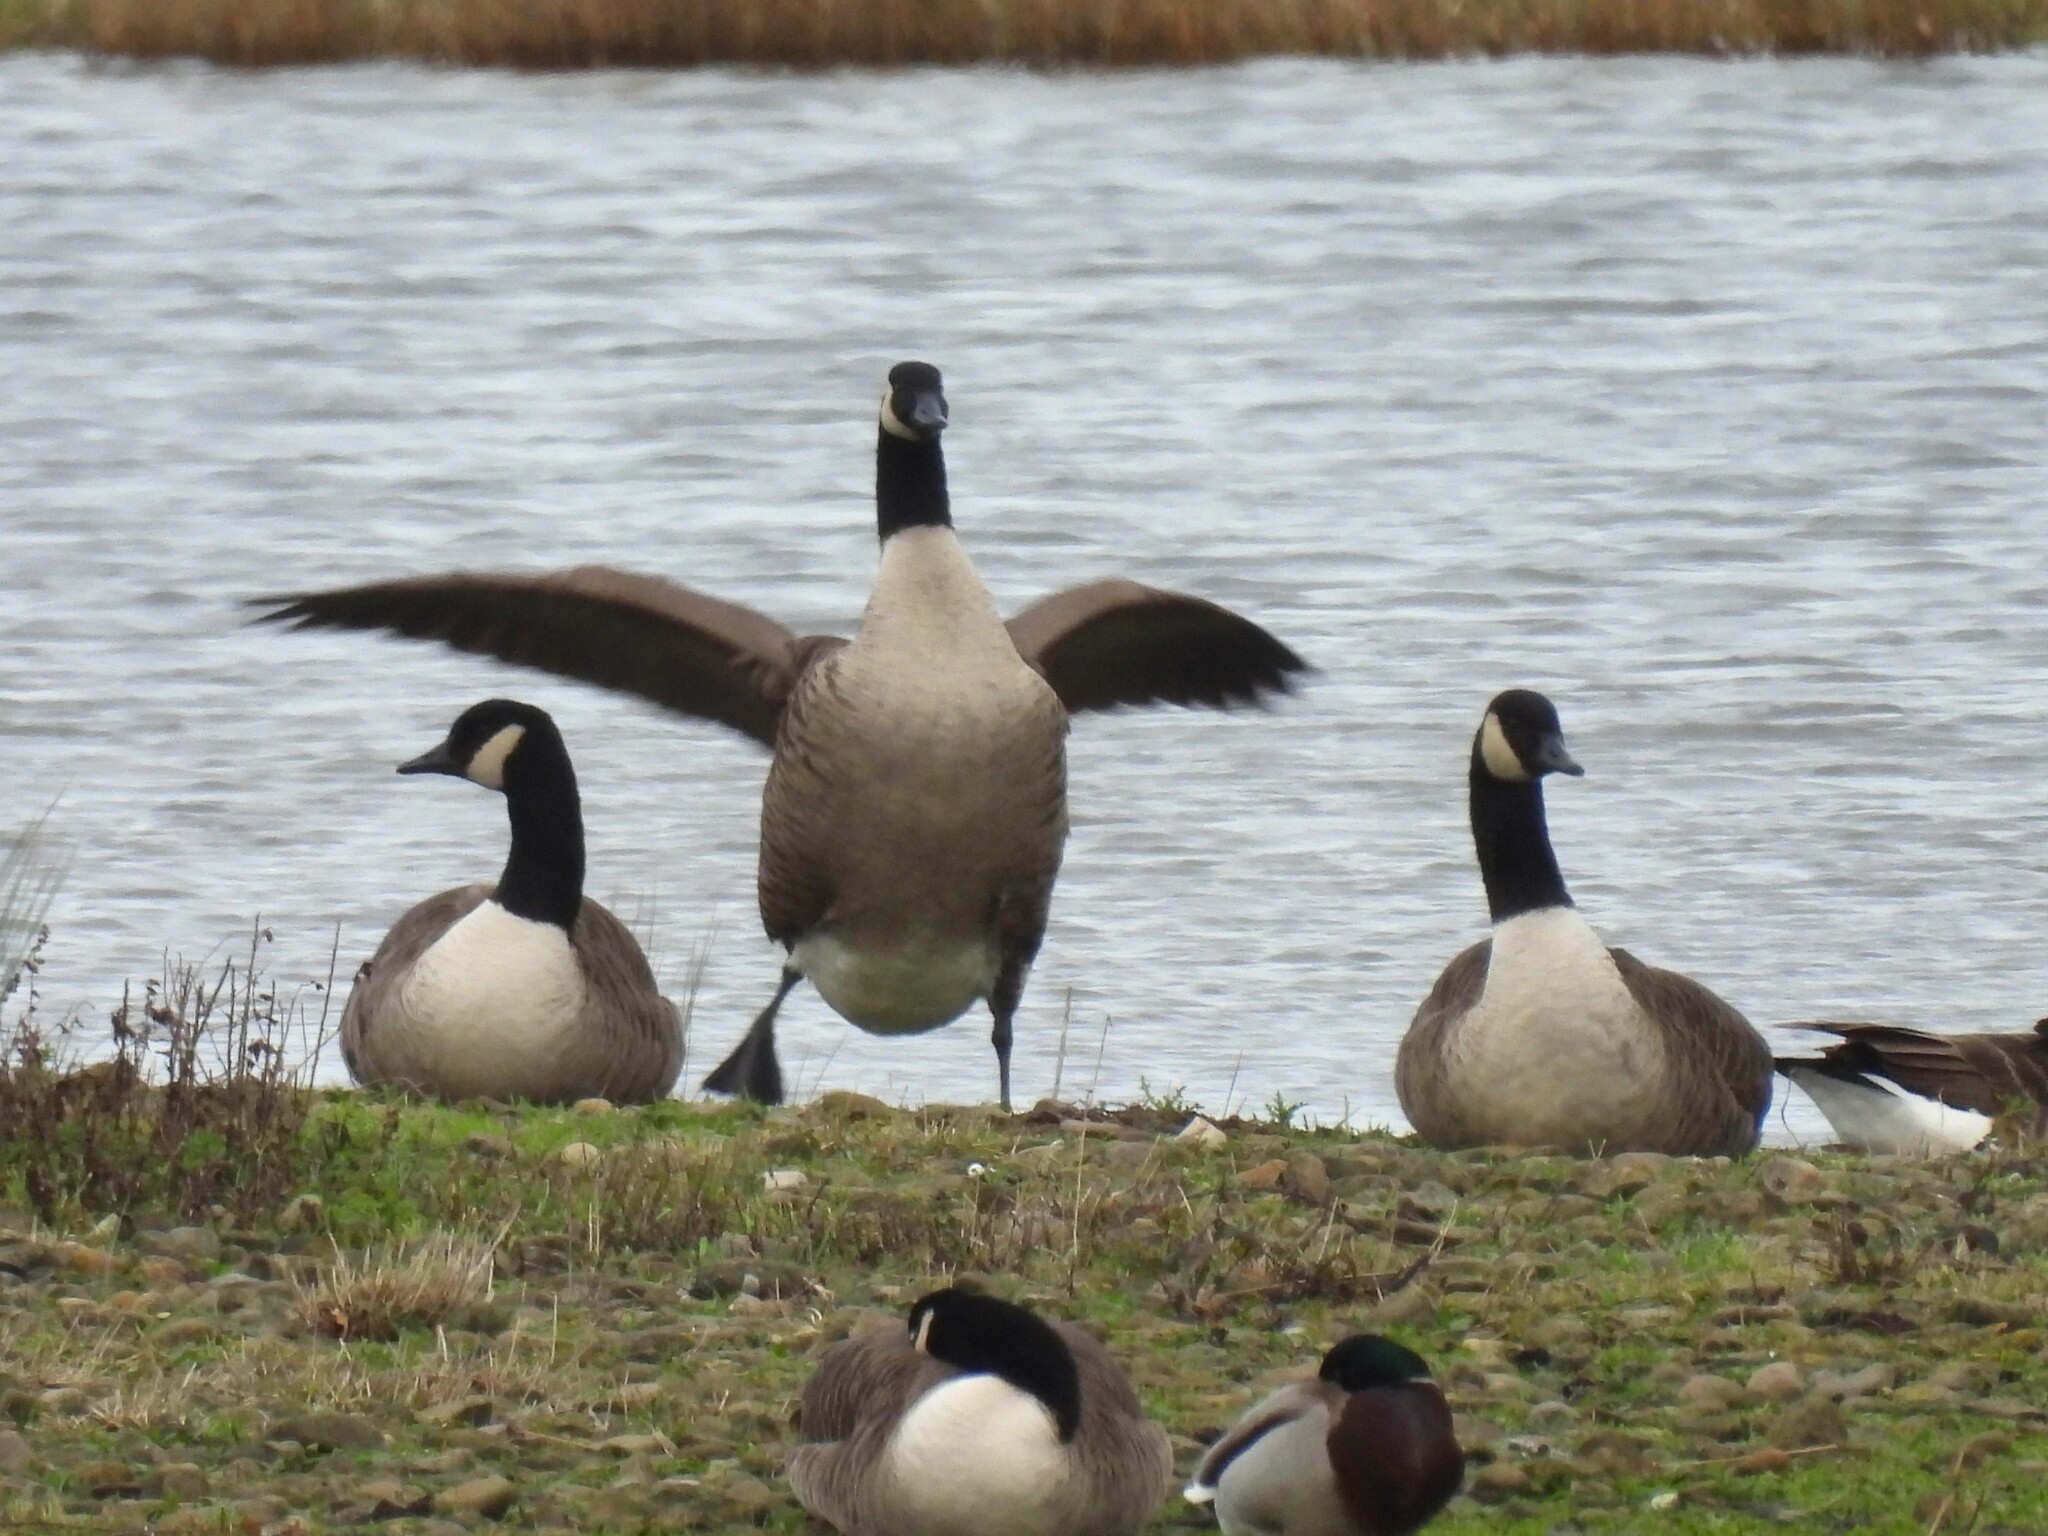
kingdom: Animalia
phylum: Chordata
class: Aves
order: Anseriformes
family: Anatidae
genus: Branta
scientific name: Branta canadensis
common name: Canada goose
